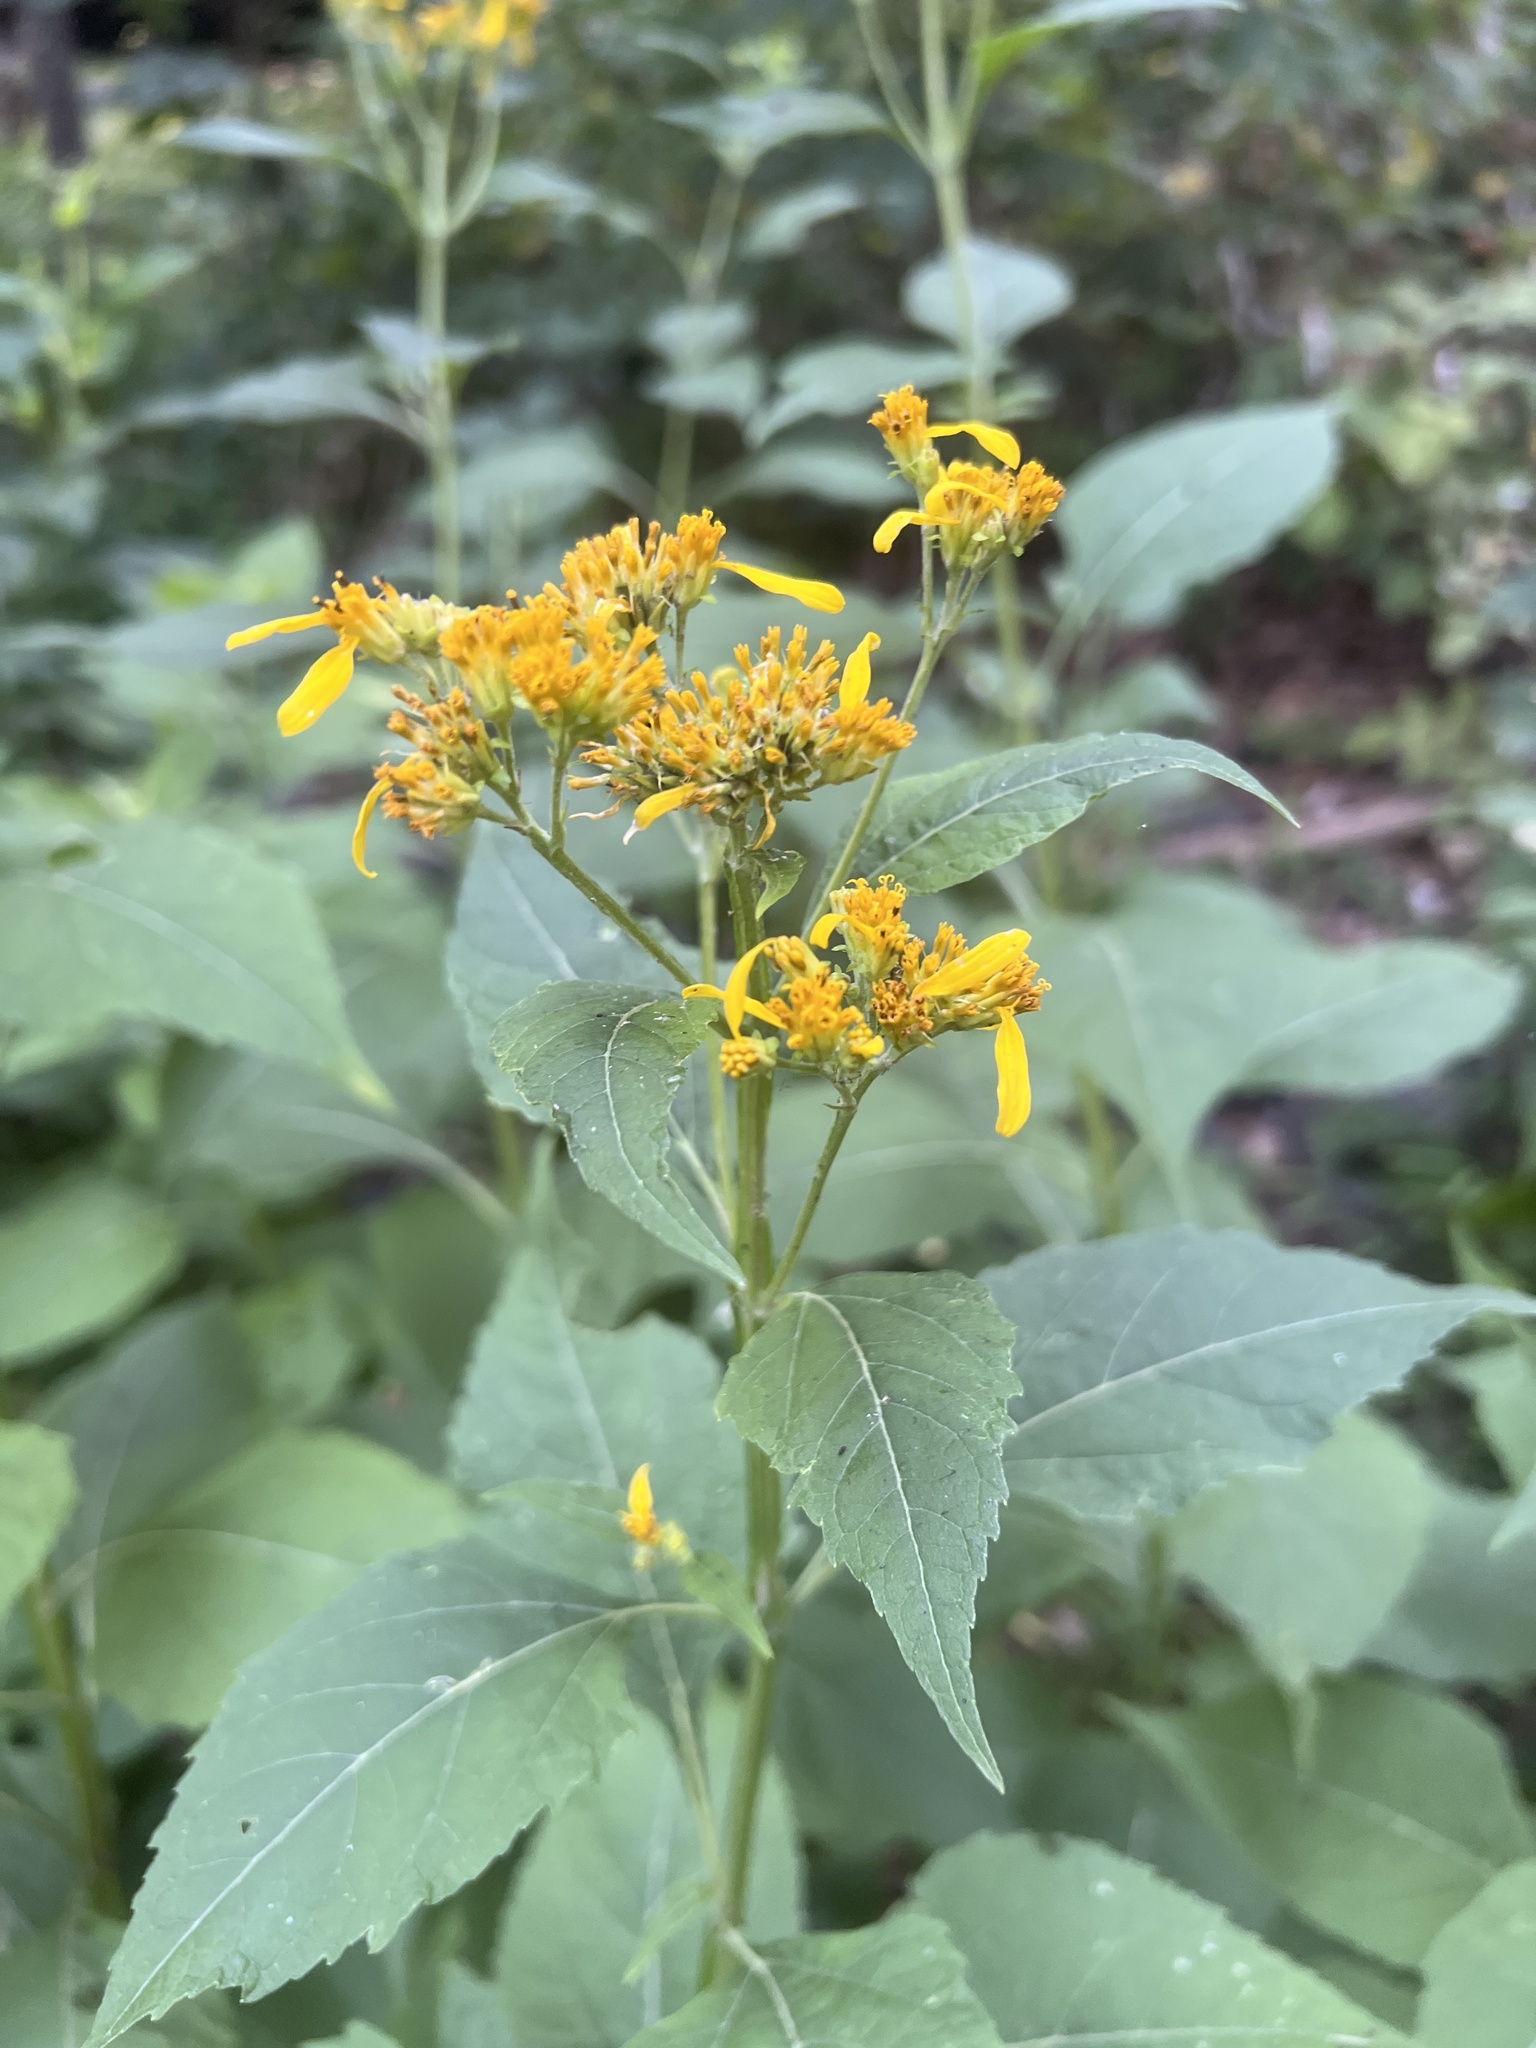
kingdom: Plantae
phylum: Tracheophyta
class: Magnoliopsida
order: Asterales
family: Asteraceae
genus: Verbesina
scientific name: Verbesina occidentalis
